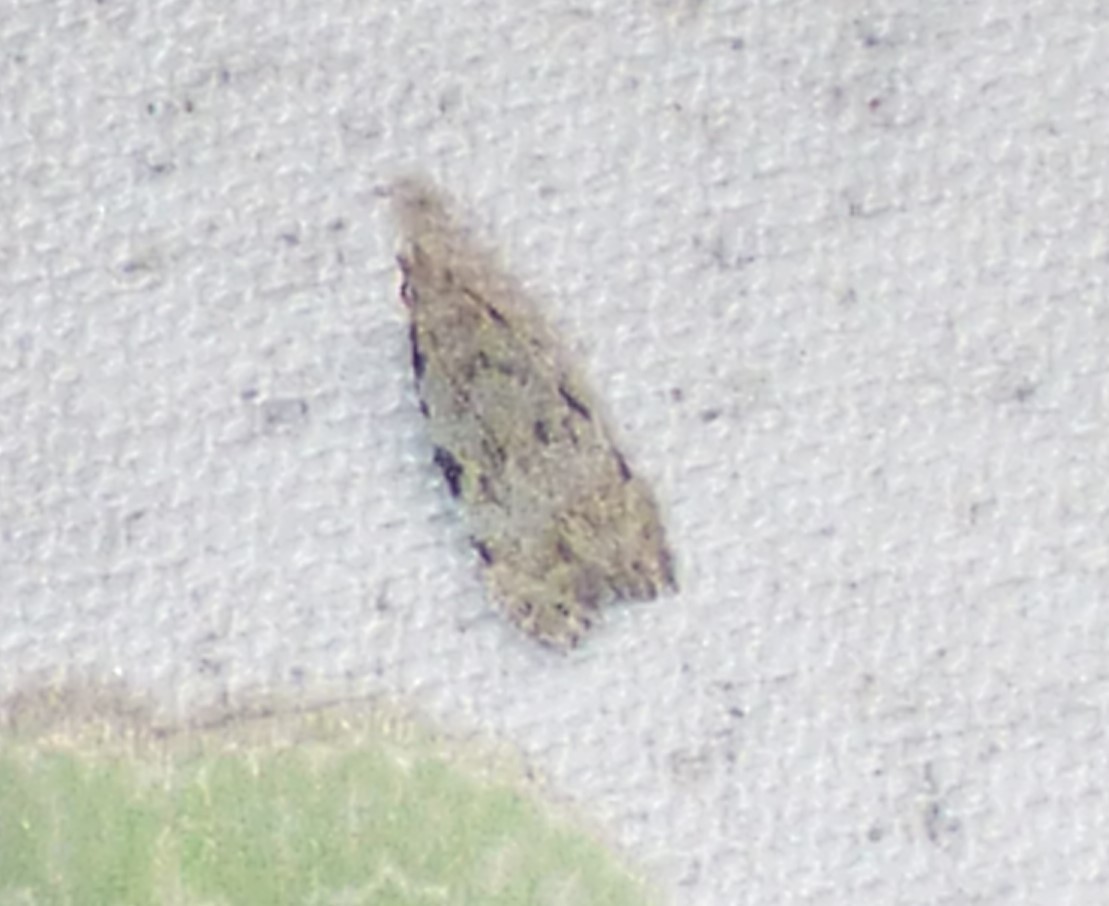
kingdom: Animalia
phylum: Arthropoda
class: Insecta
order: Lepidoptera
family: Autostichidae
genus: Taygete
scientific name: Taygete attributella
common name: Triangle-marked twirler moth
